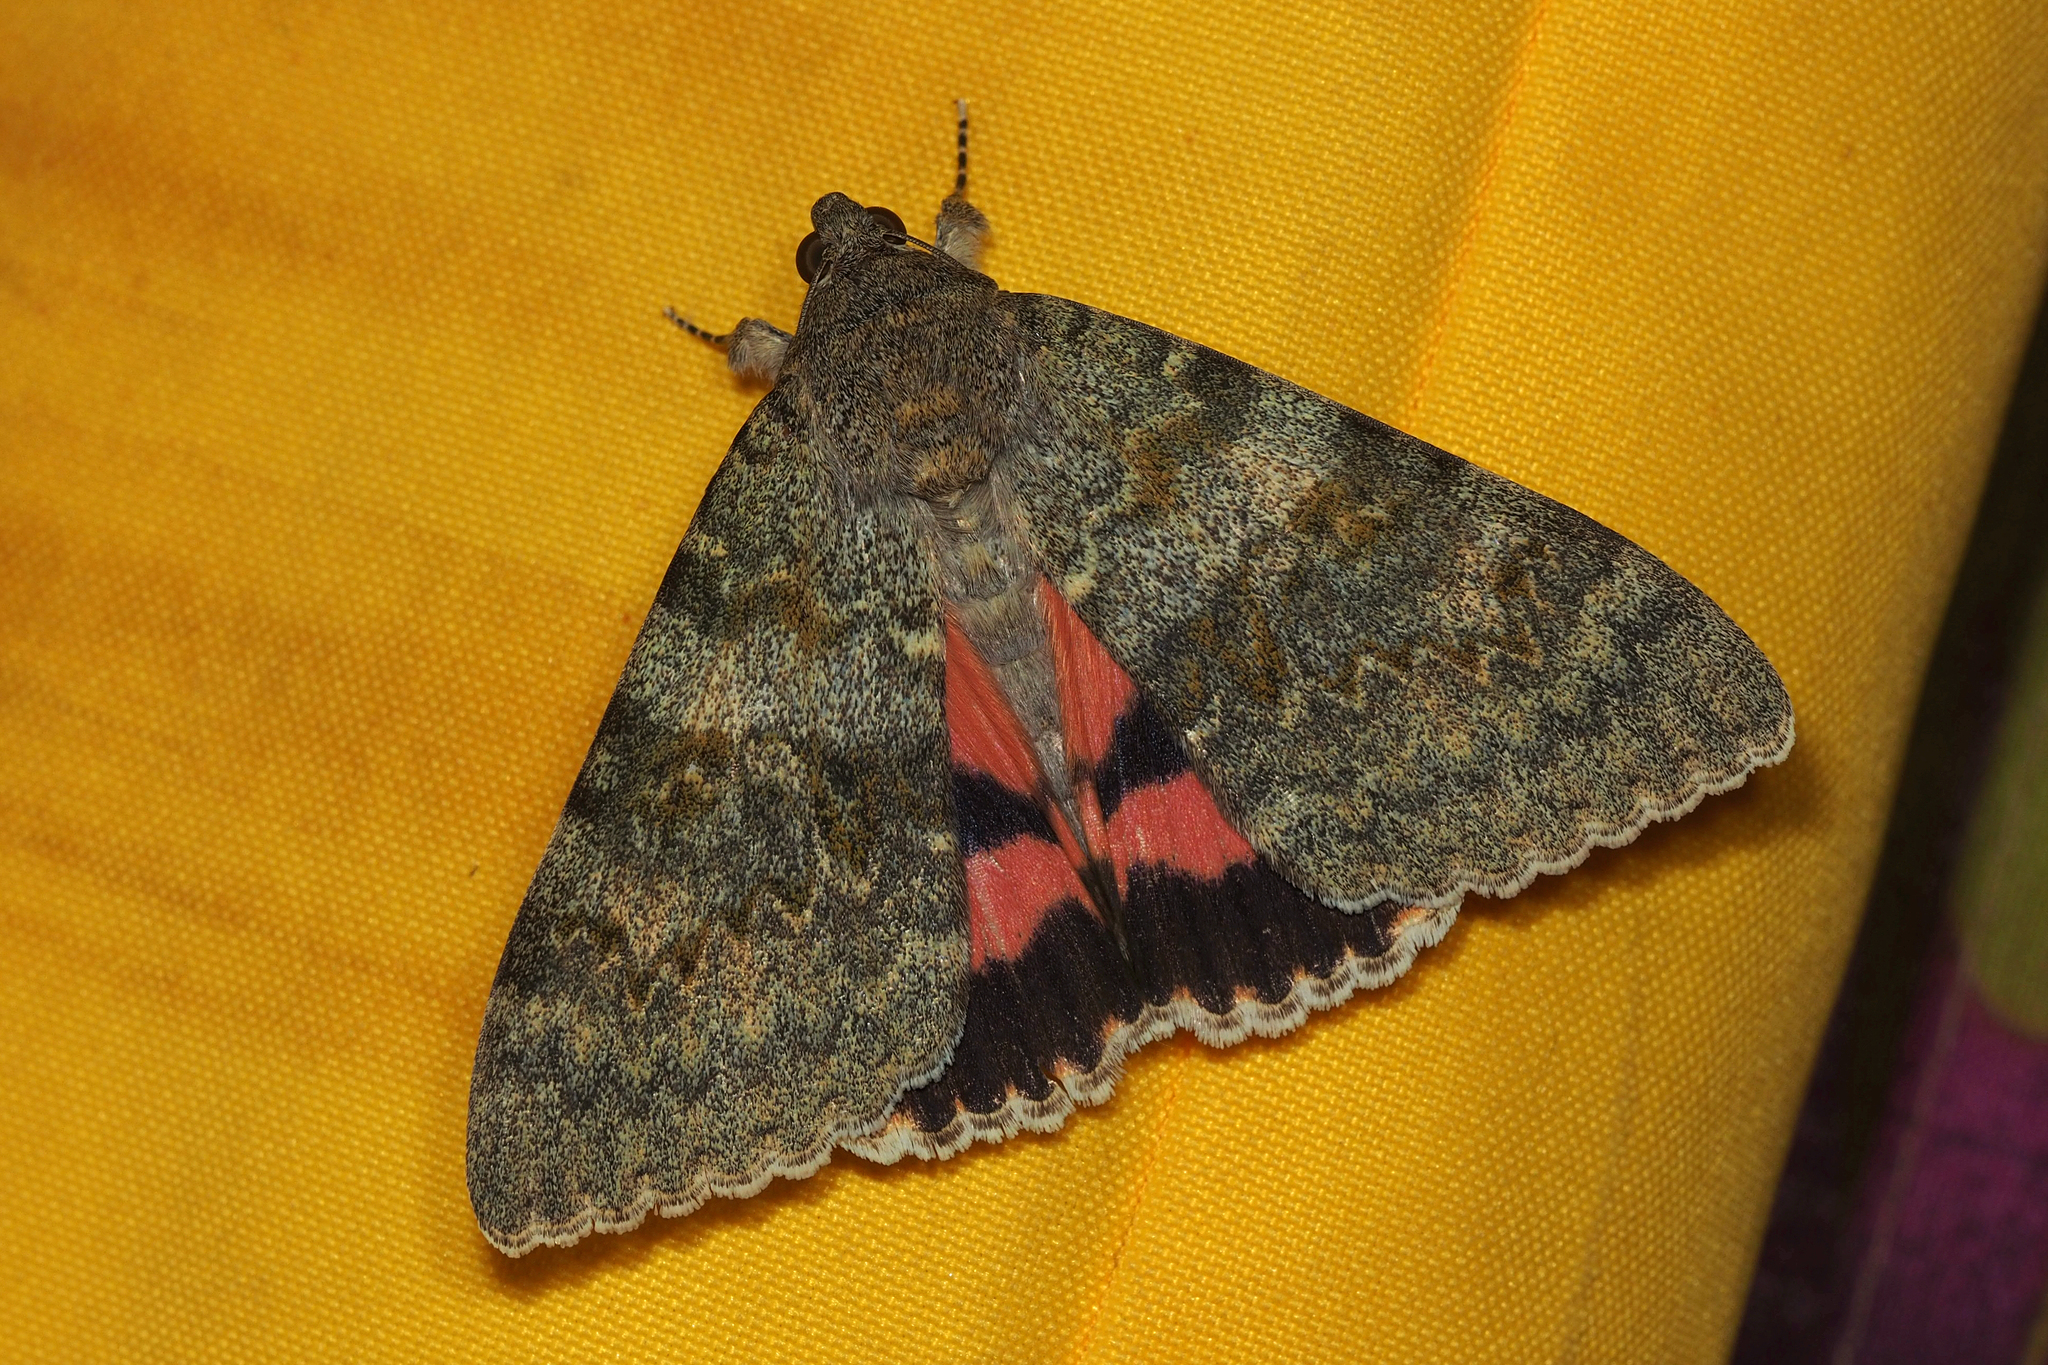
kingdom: Animalia
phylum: Arthropoda
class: Insecta
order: Lepidoptera
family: Erebidae
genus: Catocala
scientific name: Catocala elocata
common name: French red underwing
